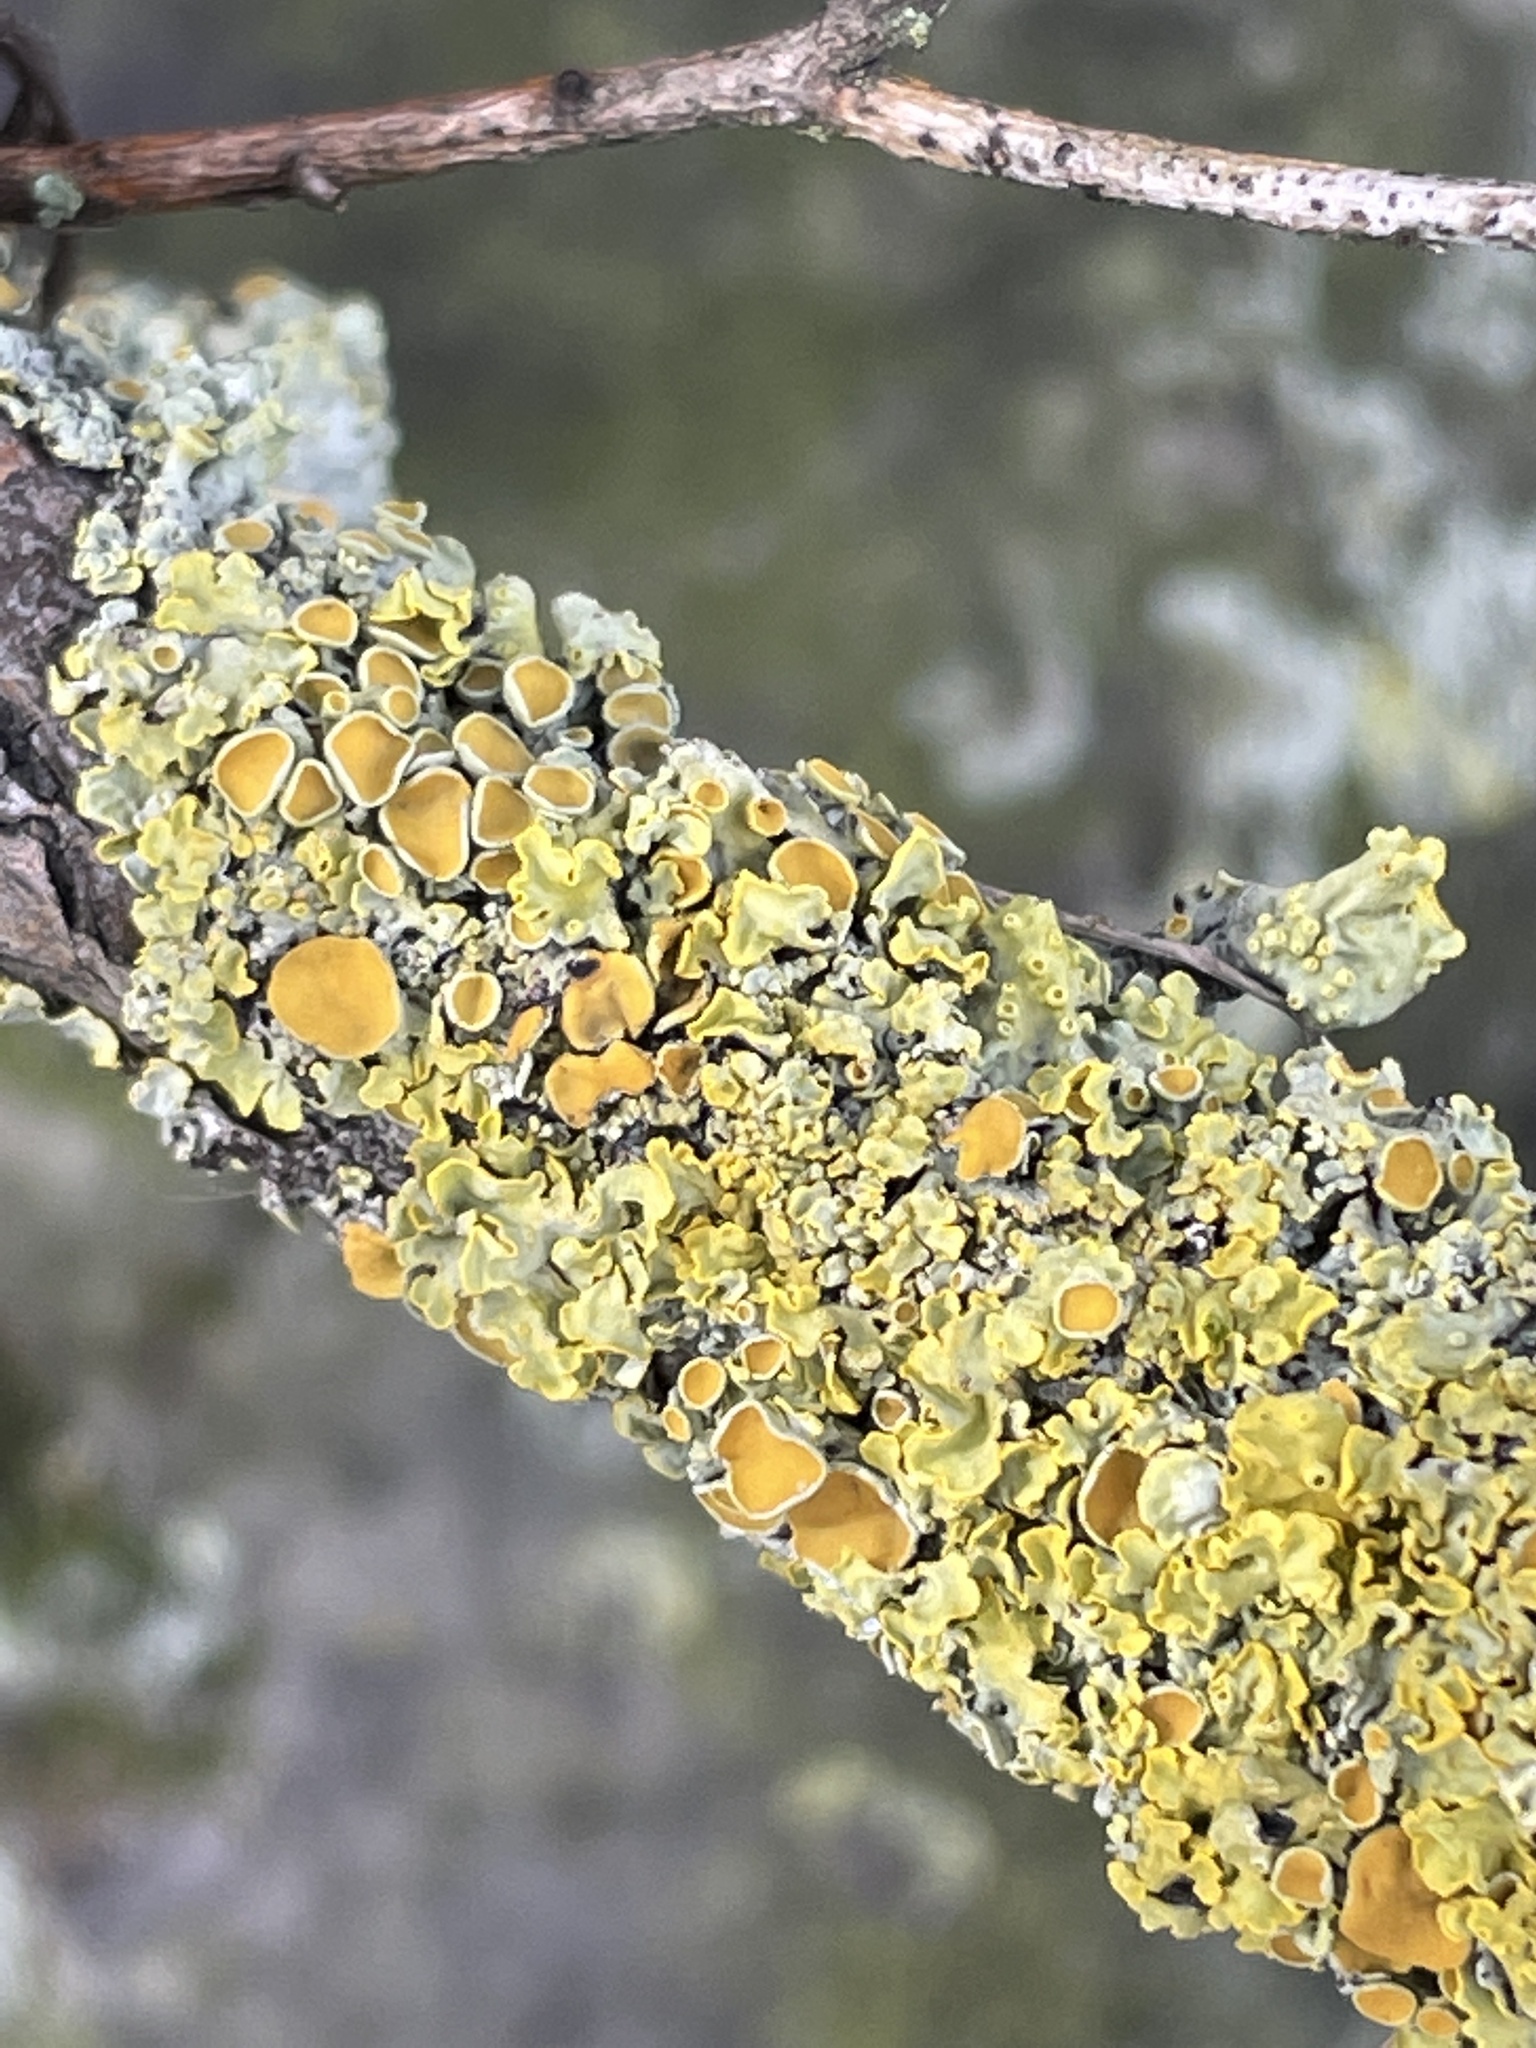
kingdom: Fungi
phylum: Ascomycota
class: Lecanoromycetes
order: Teloschistales
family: Teloschistaceae
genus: Xanthoria
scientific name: Xanthoria parietina
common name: Common orange lichen
